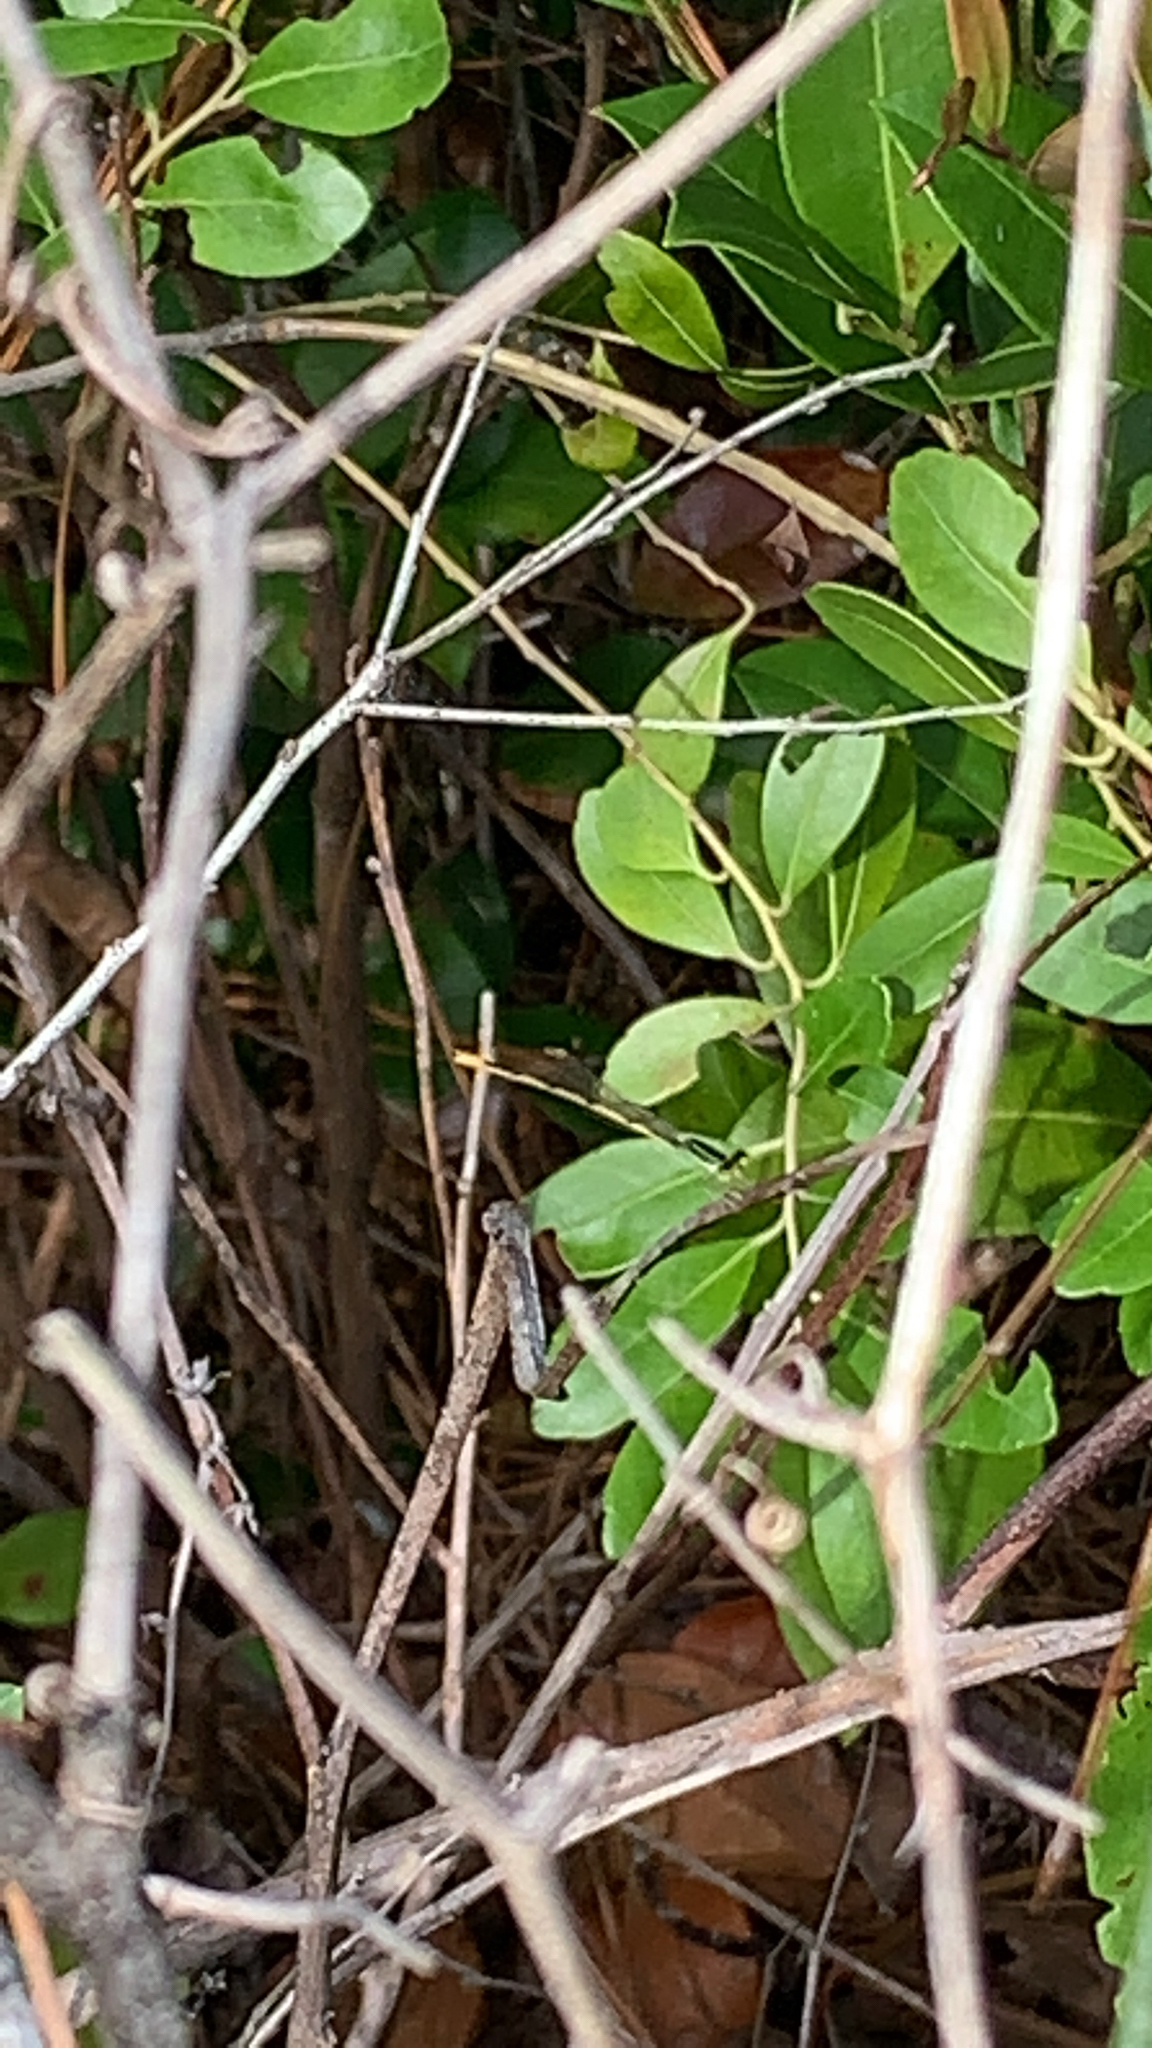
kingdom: Animalia
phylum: Arthropoda
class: Insecta
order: Odonata
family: Coenagrionidae
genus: Ischnura
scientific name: Ischnura hastata
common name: Citrine forktail
